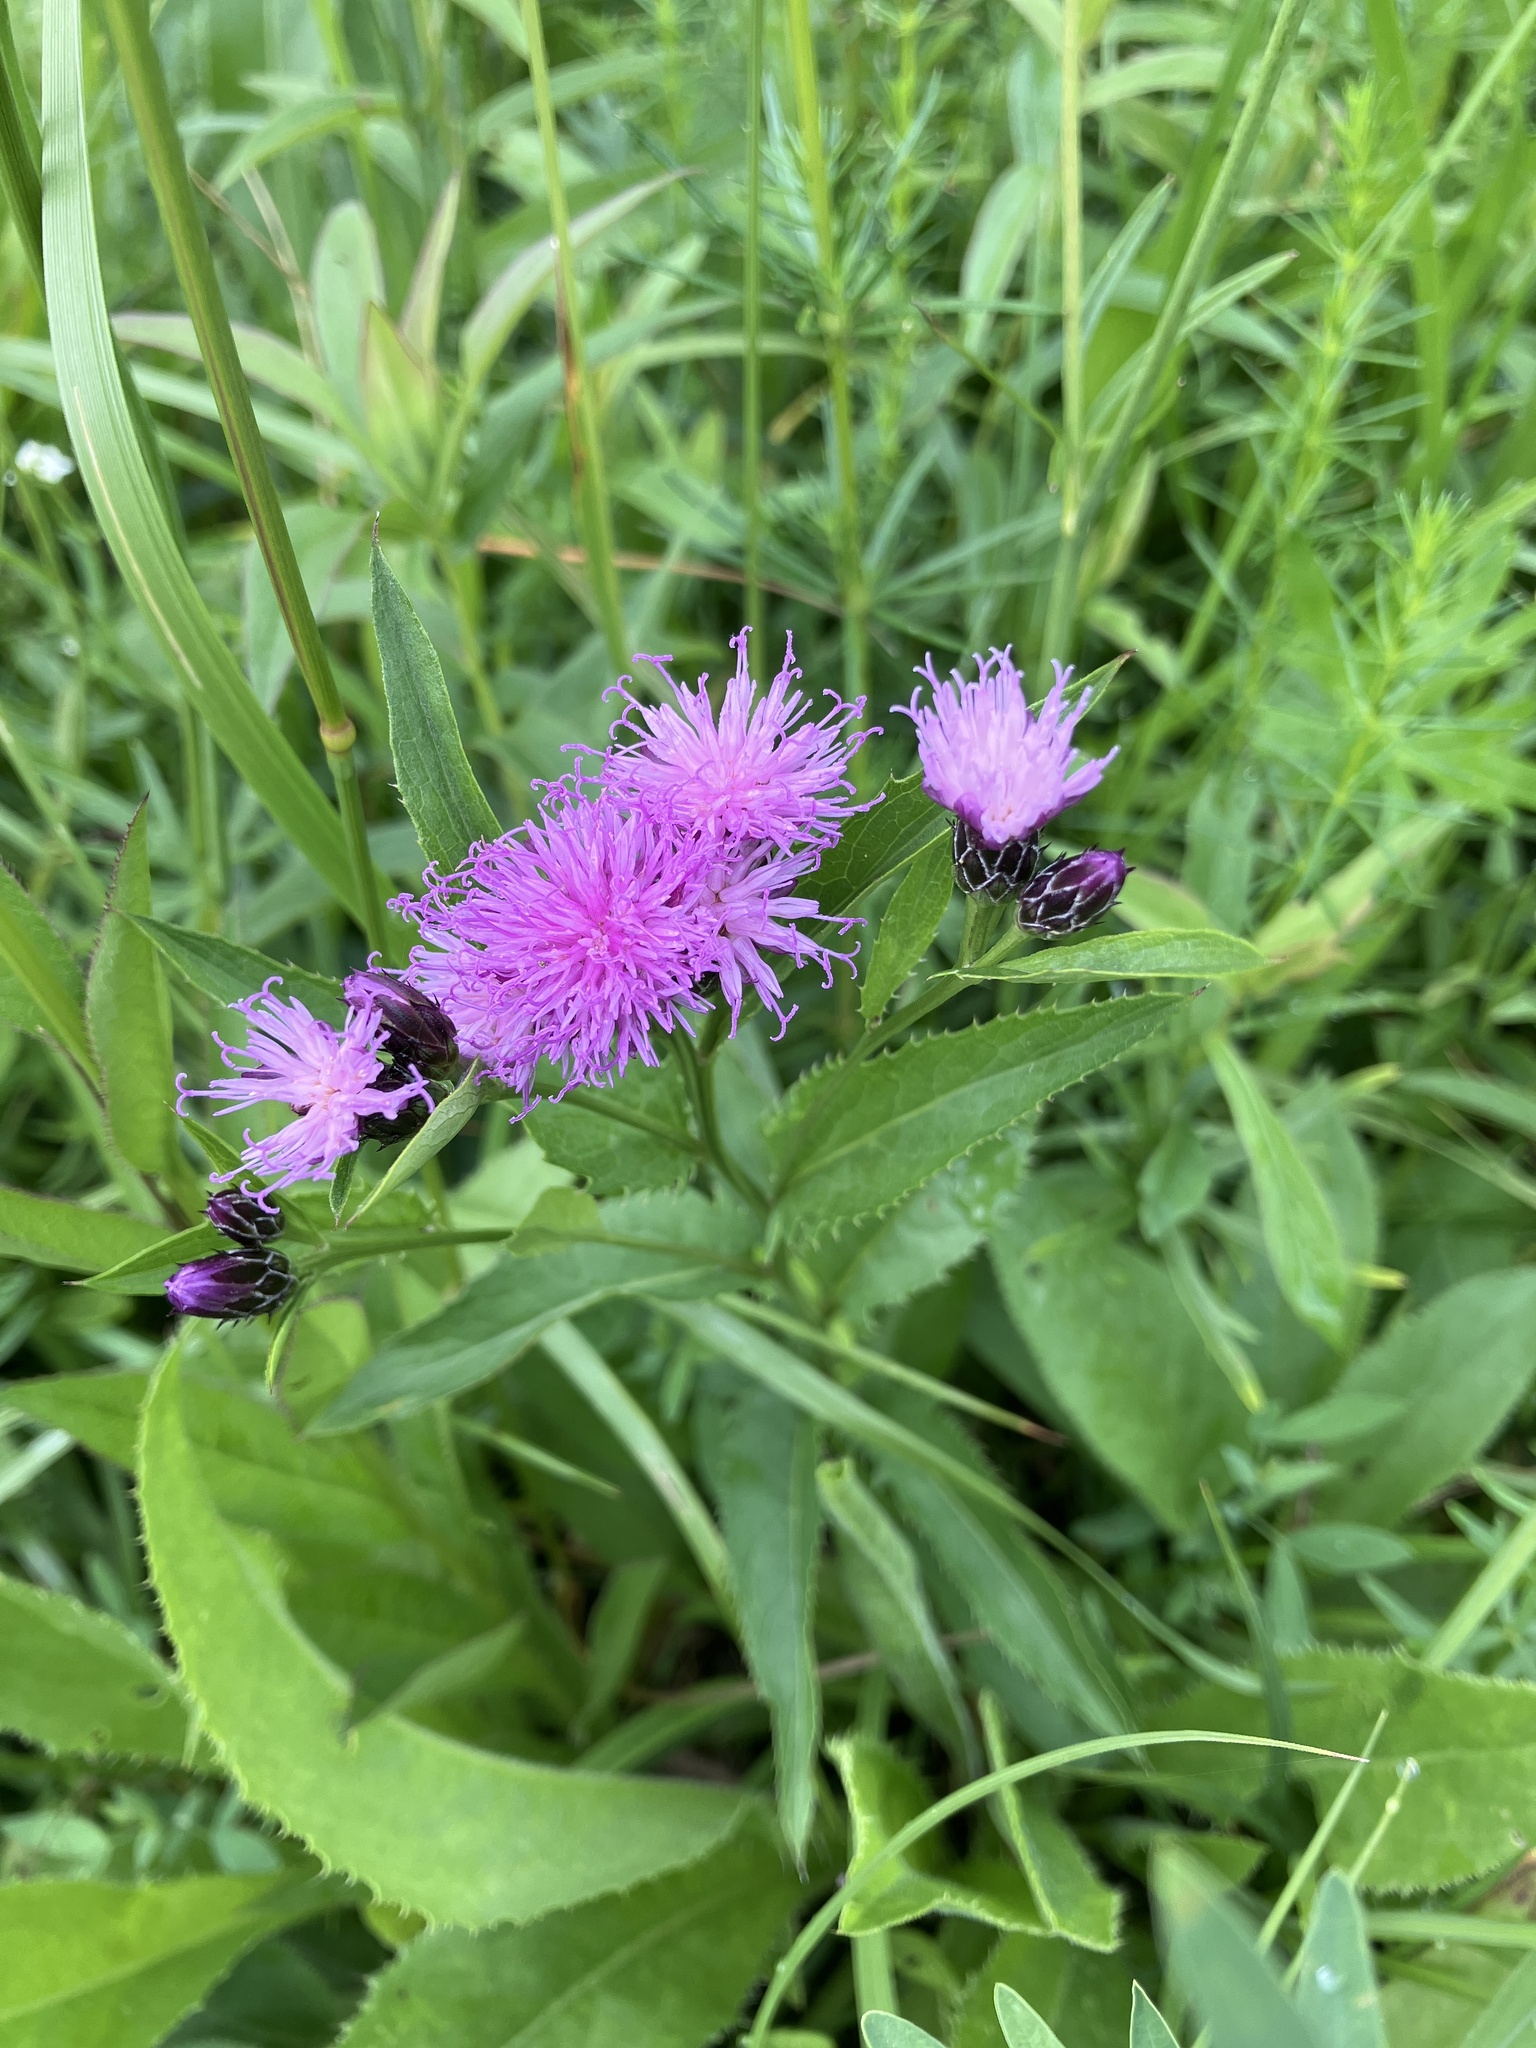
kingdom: Plantae
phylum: Tracheophyta
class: Magnoliopsida
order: Asterales
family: Asteraceae
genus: Serratula
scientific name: Serratula tinctoria
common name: Saw-wort
